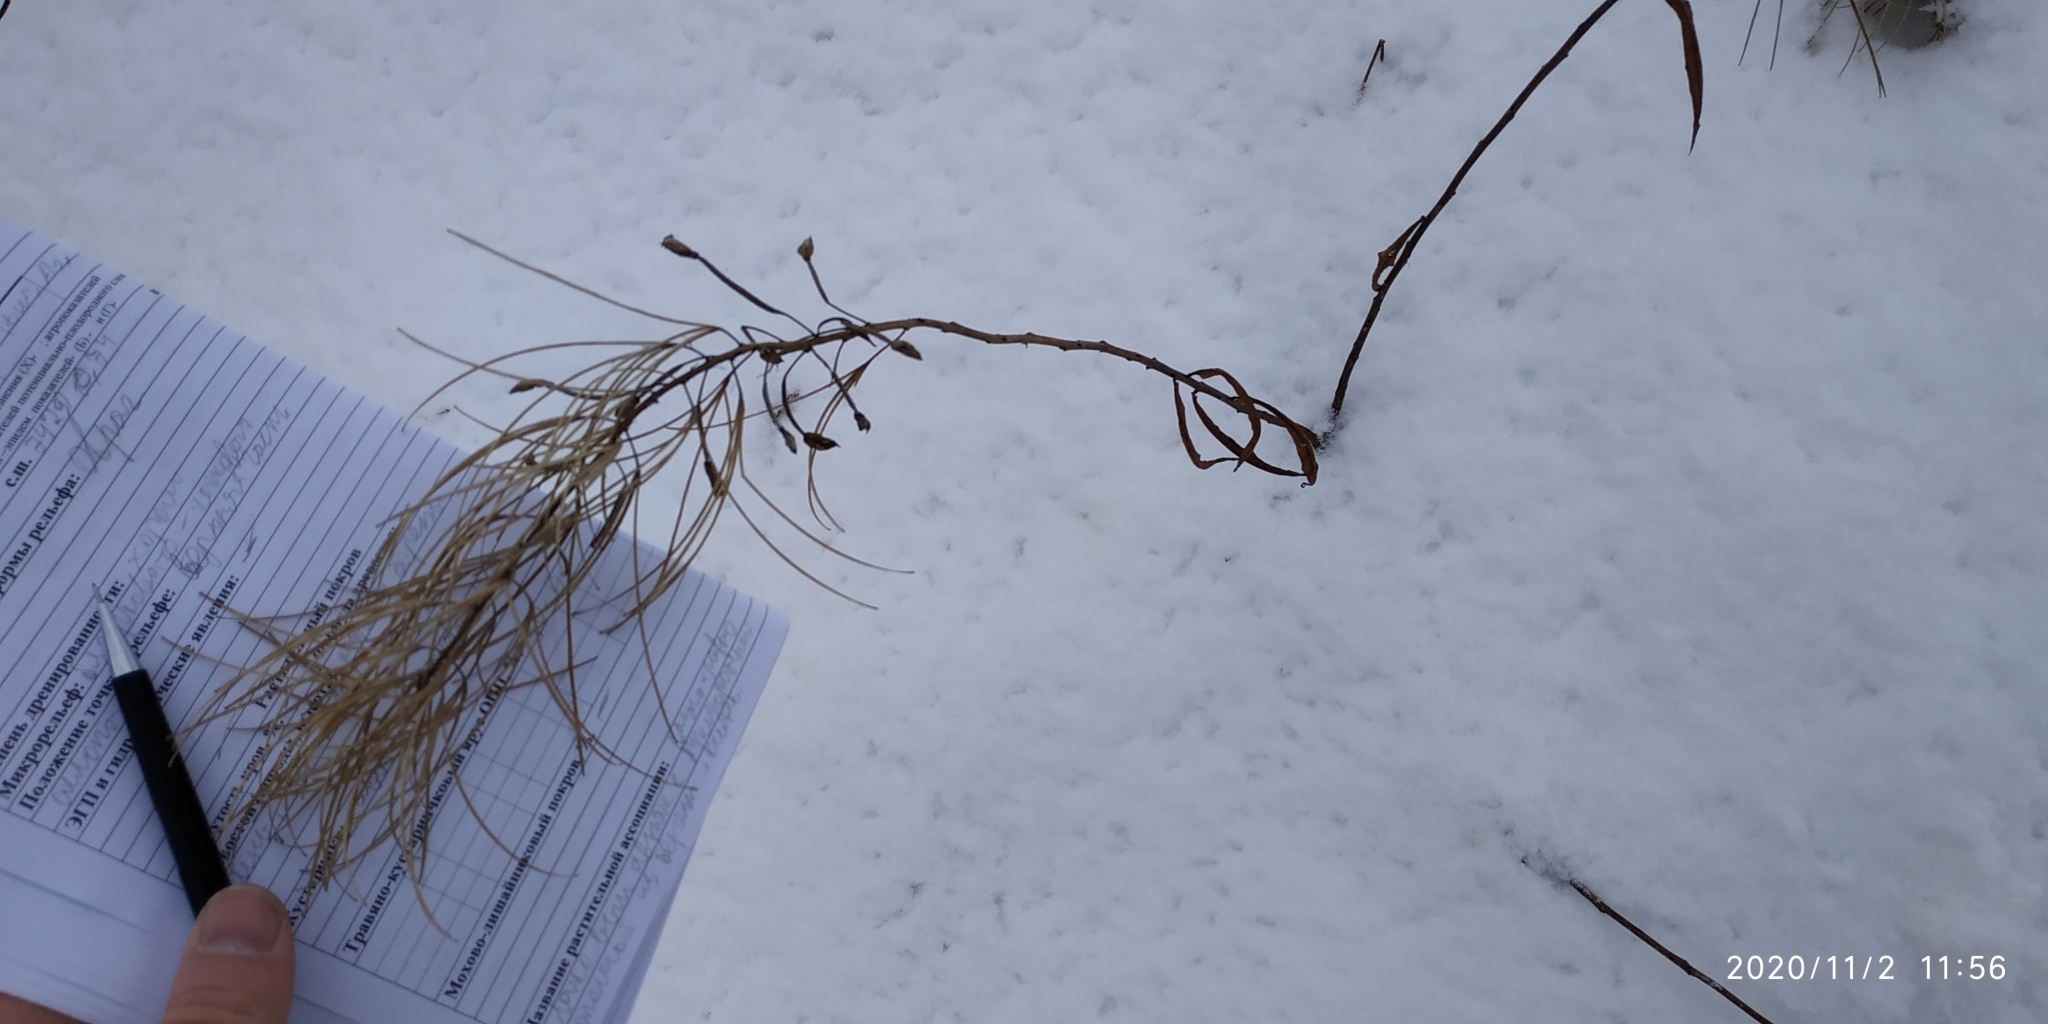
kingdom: Plantae
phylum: Tracheophyta
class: Magnoliopsida
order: Myrtales
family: Onagraceae
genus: Chamaenerion
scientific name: Chamaenerion angustifolium
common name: Fireweed
